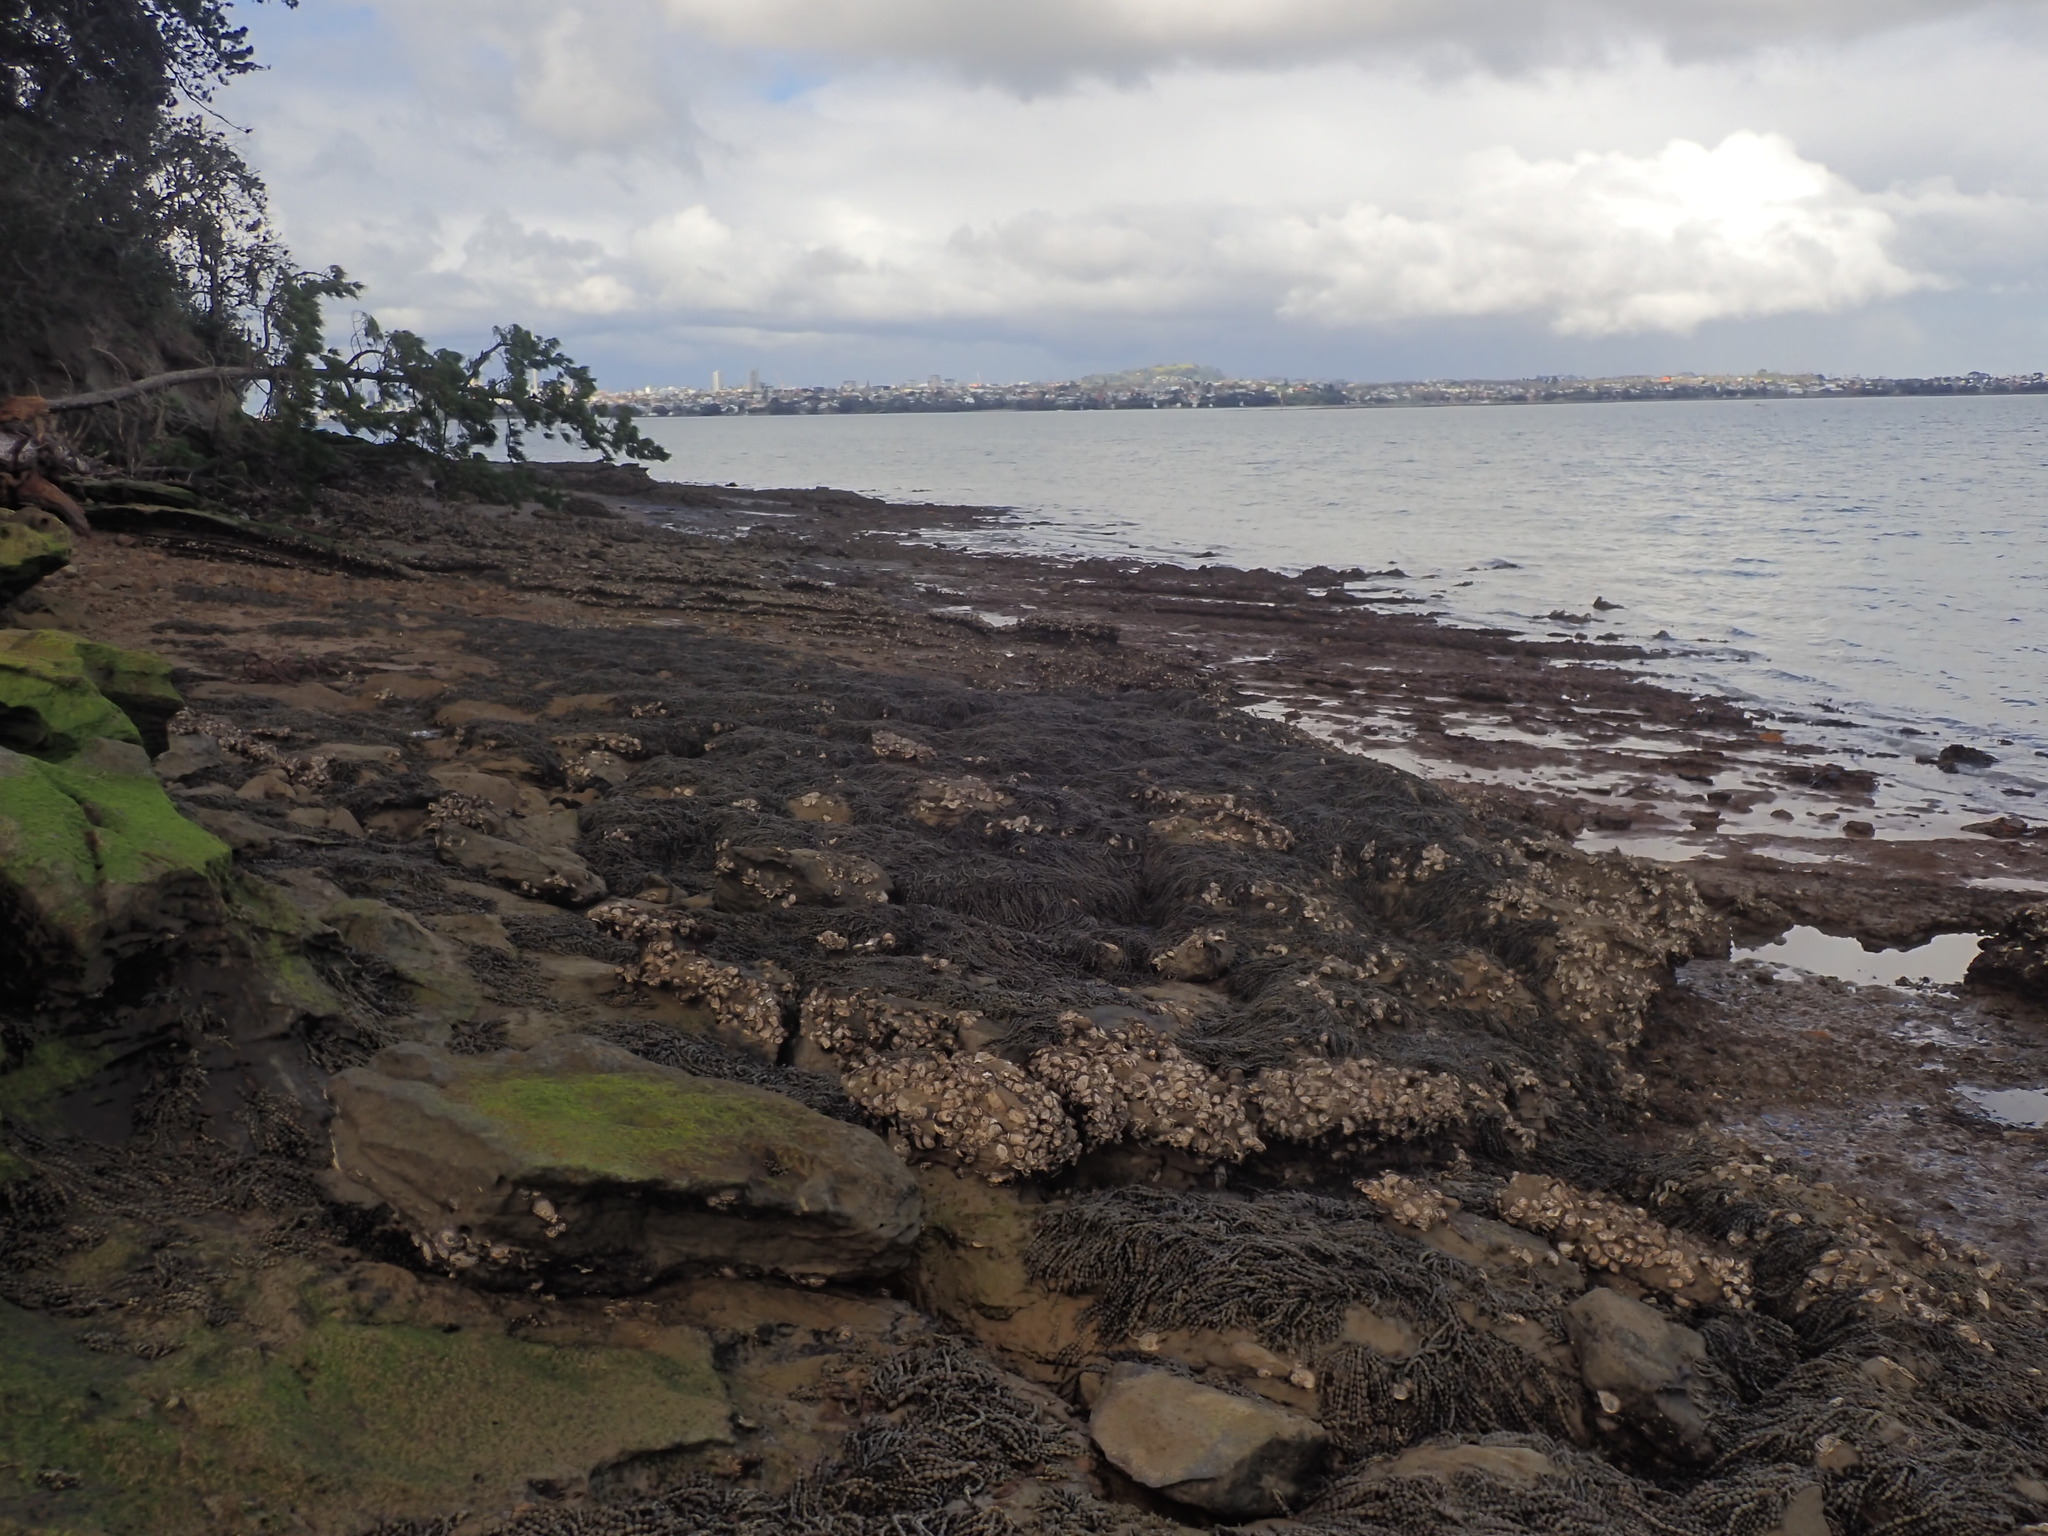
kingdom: Chromista
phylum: Ochrophyta
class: Phaeophyceae
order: Fucales
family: Hormosiraceae
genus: Hormosira
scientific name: Hormosira banksii
